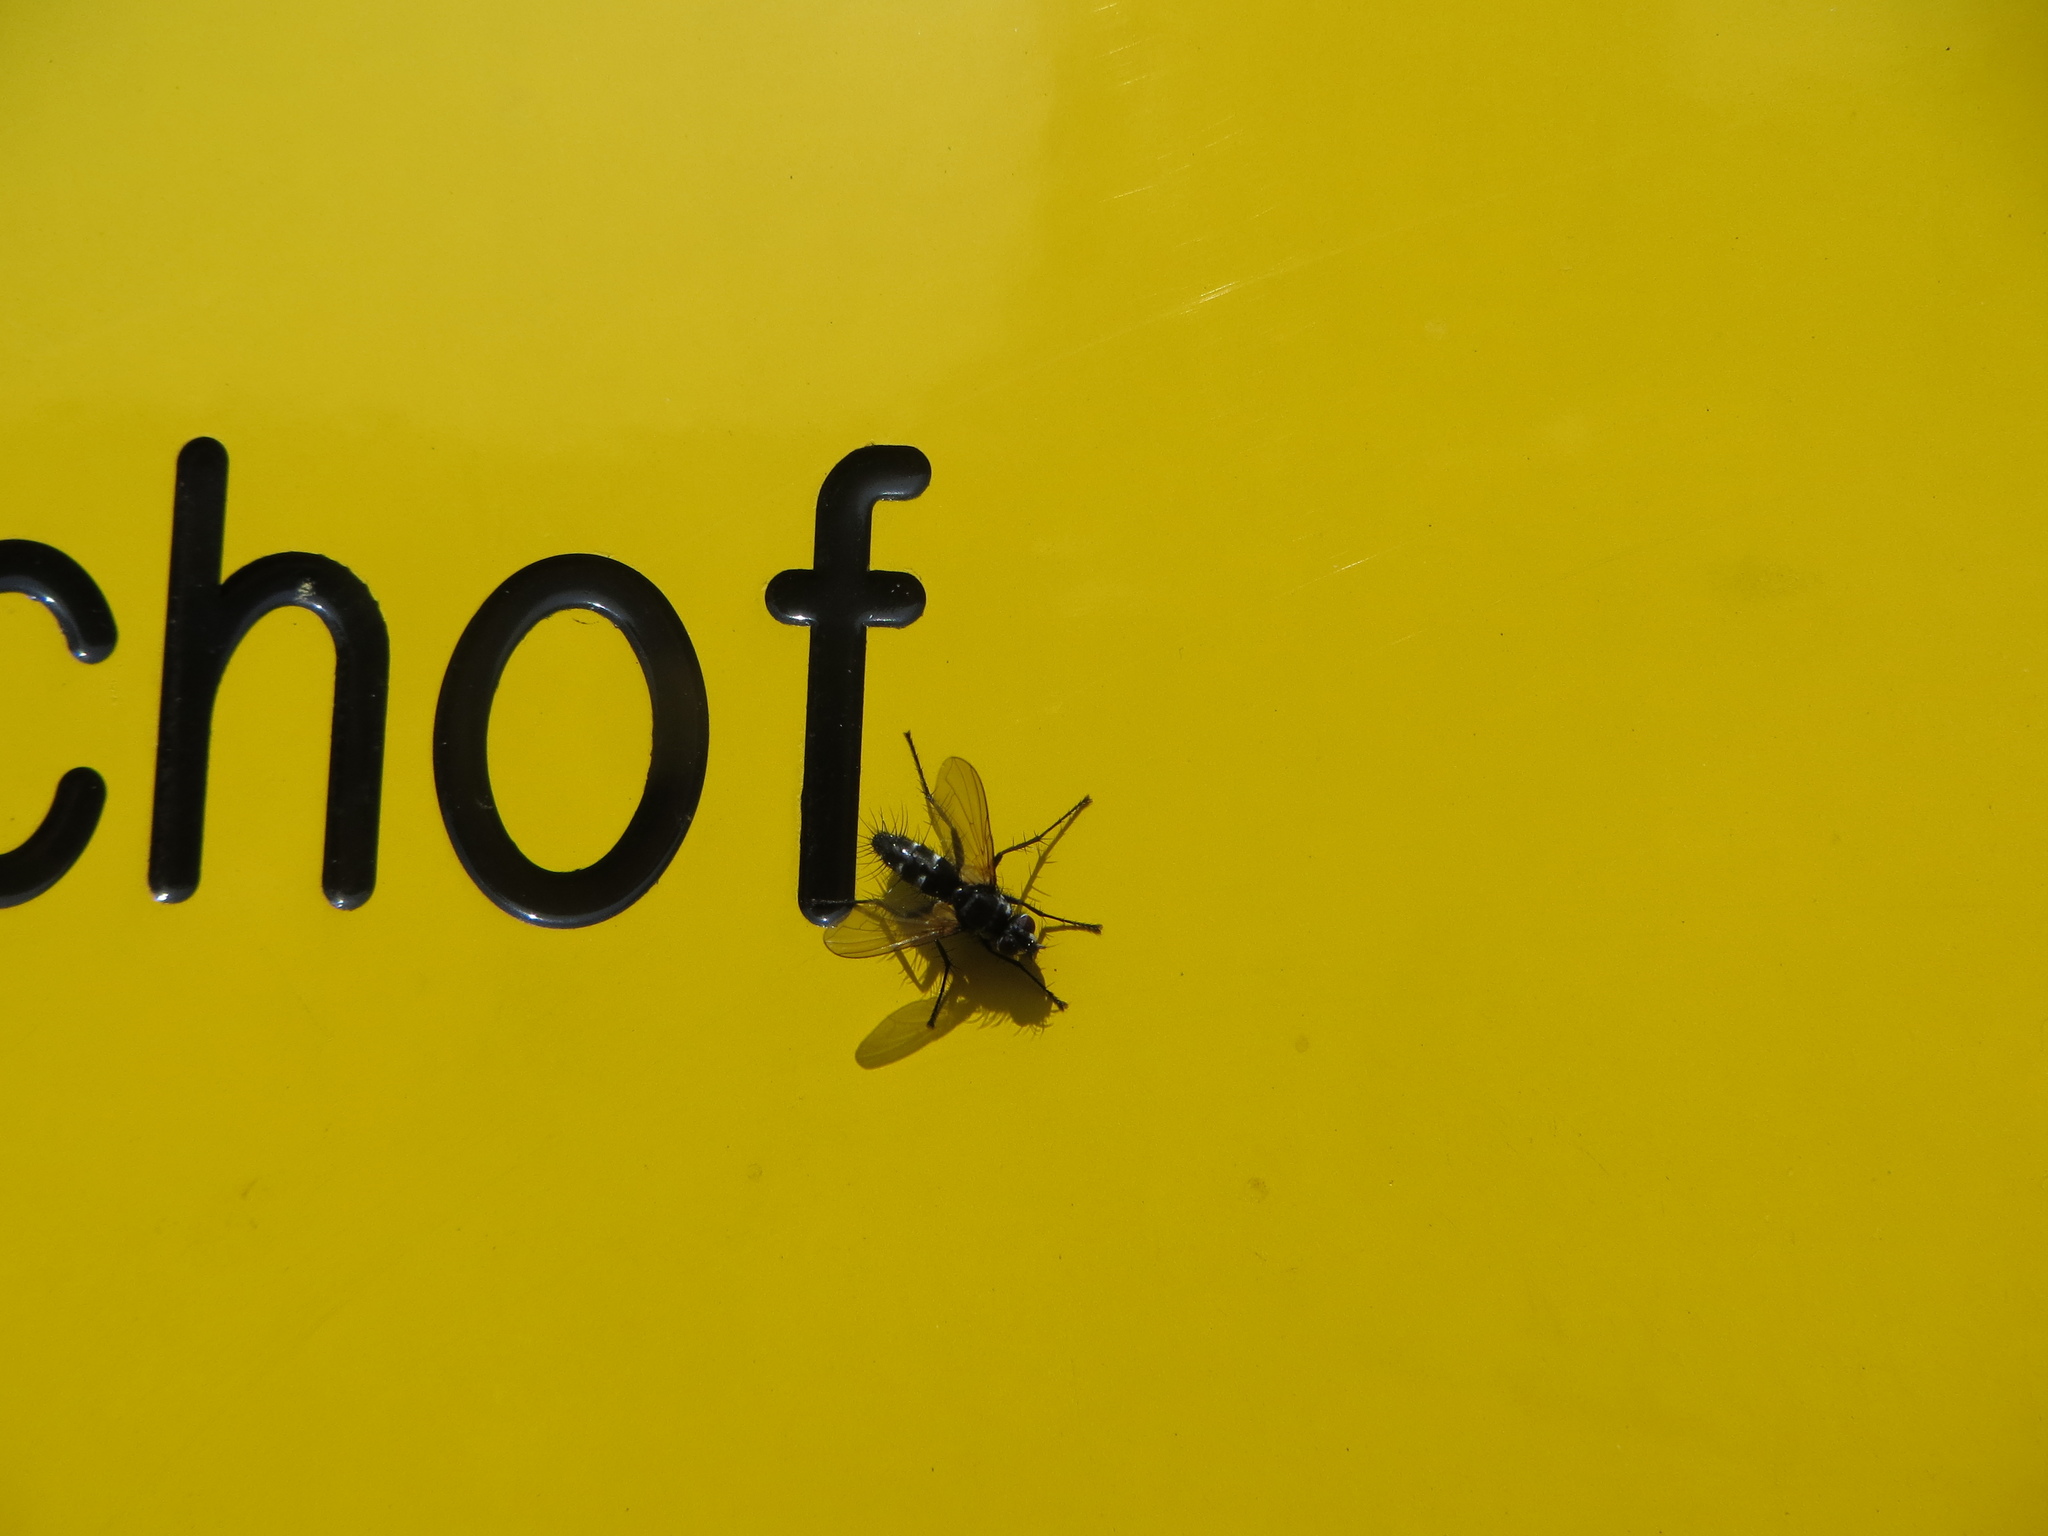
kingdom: Animalia
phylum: Arthropoda
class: Insecta
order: Diptera
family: Tachinidae
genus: Phyllomya
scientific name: Phyllomya volvulus
